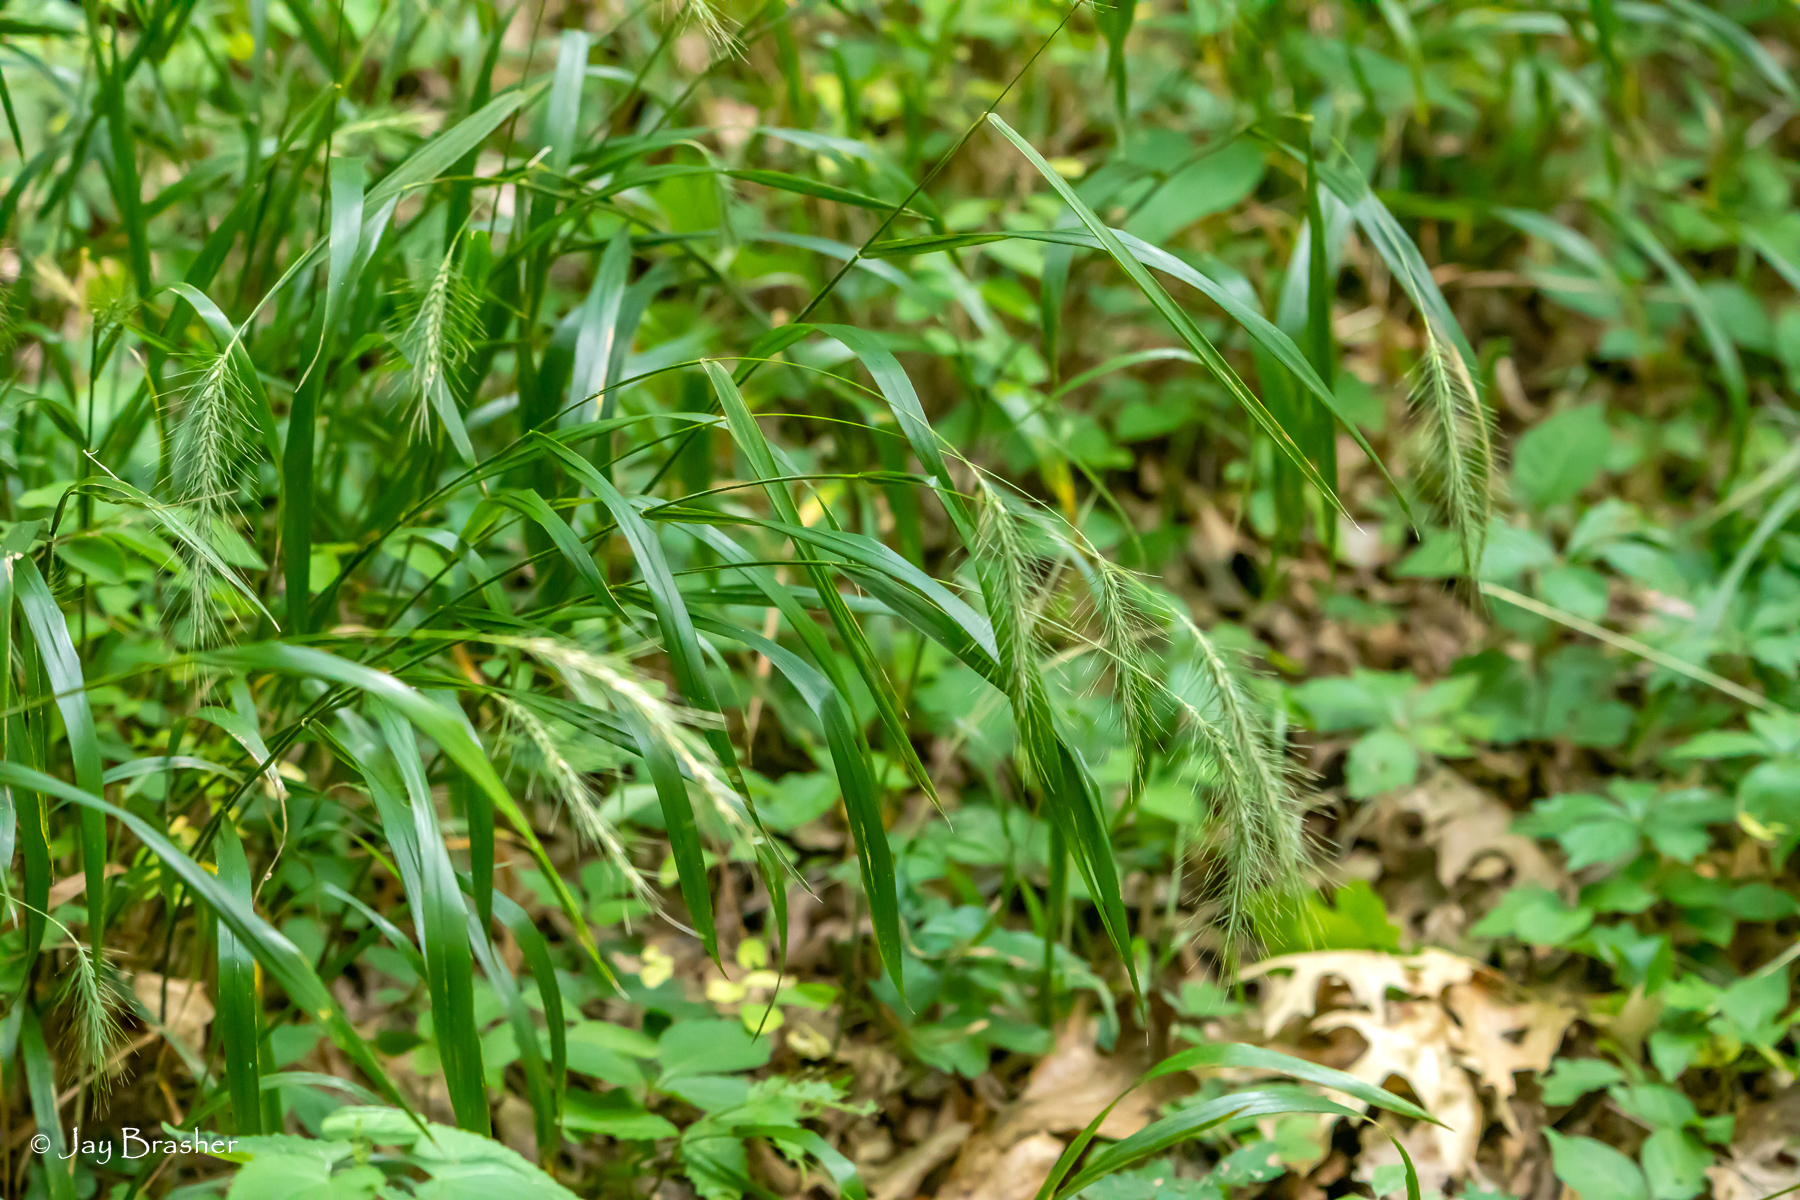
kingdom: Plantae
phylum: Tracheophyta
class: Liliopsida
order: Poales
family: Poaceae
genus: Elymus
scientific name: Elymus villosus
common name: Downy wild rye
